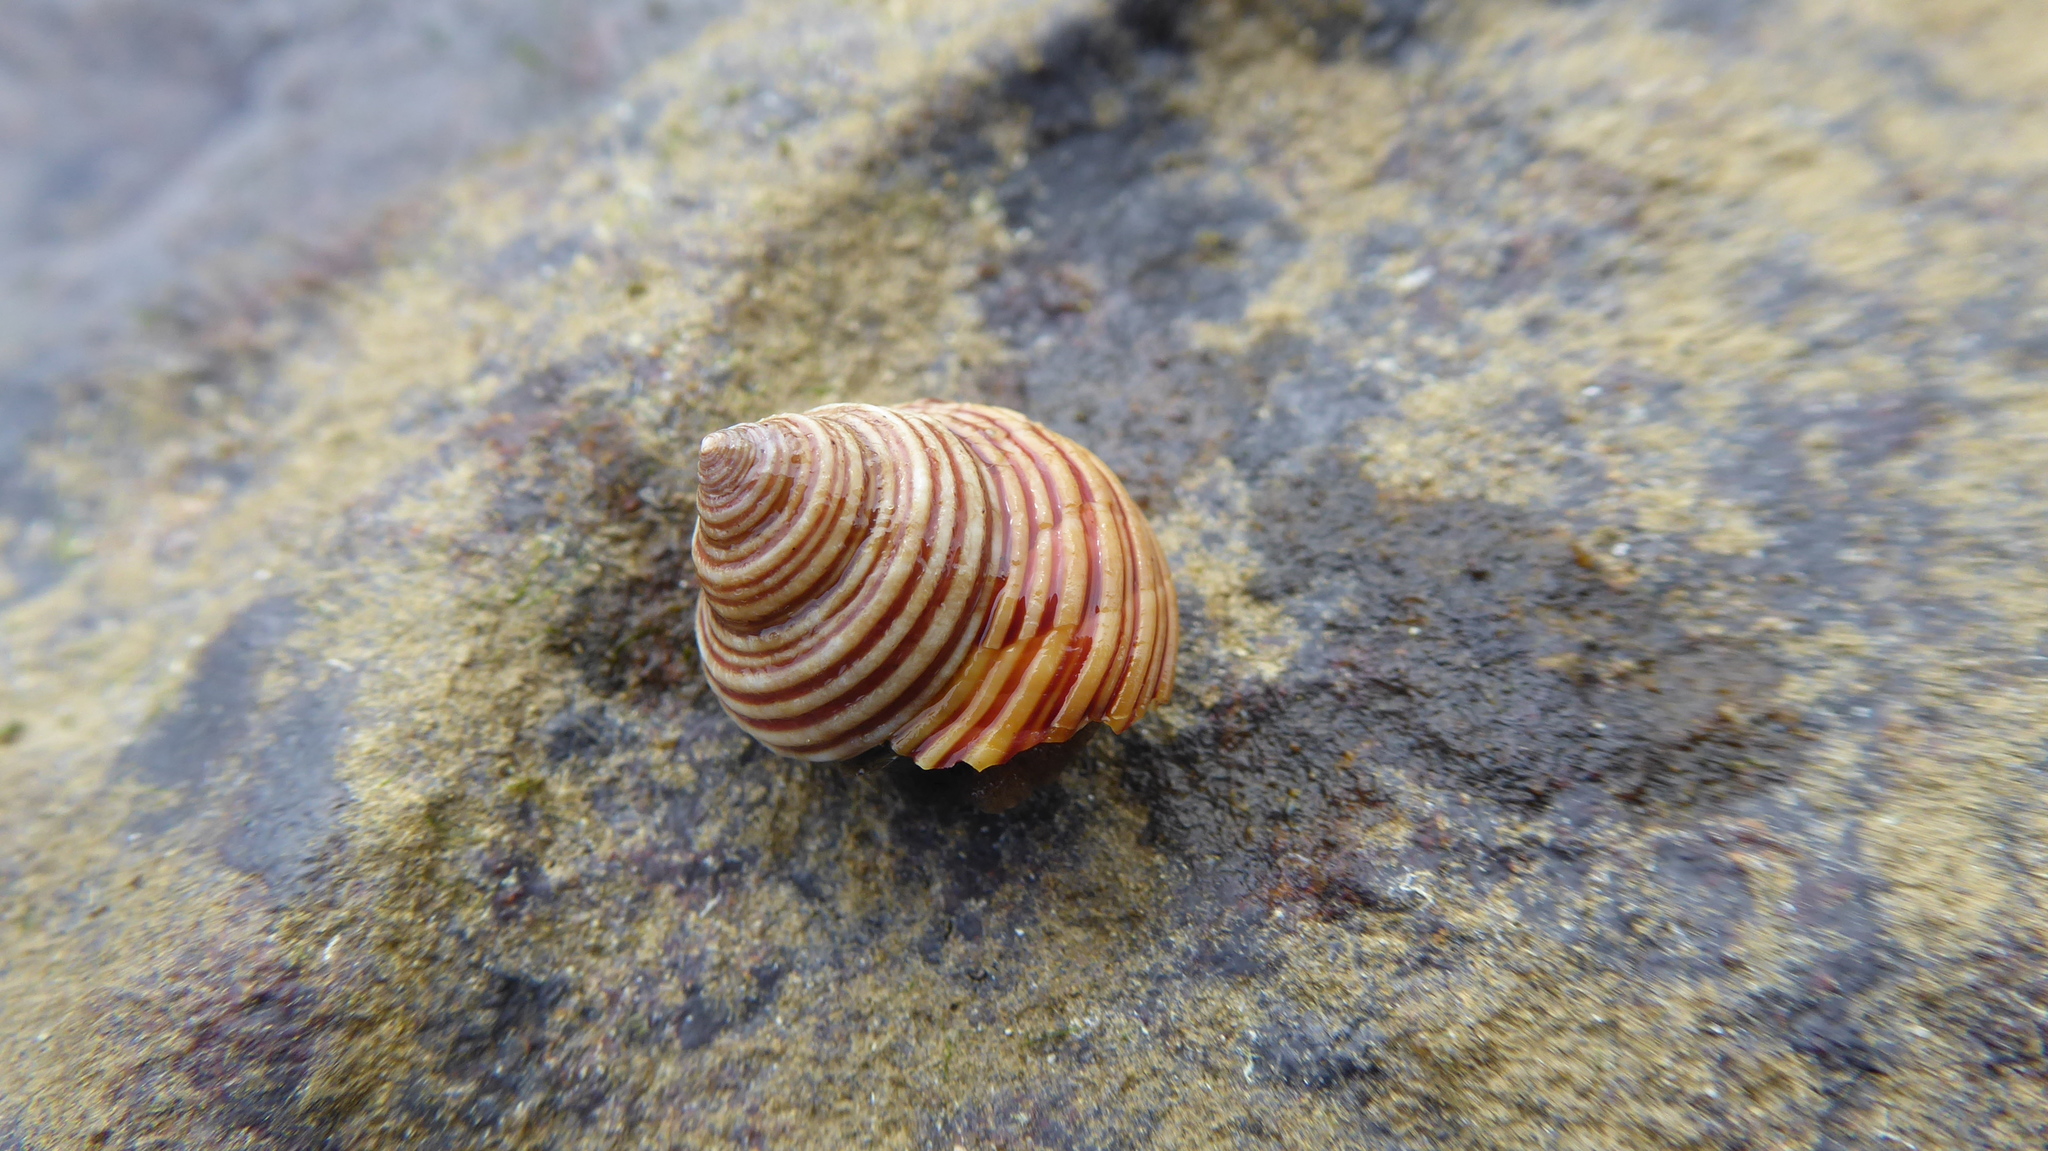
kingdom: Animalia
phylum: Mollusca
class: Gastropoda
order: Trochida
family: Calliostomatidae
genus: Calliostoma
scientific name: Calliostoma ligatum
